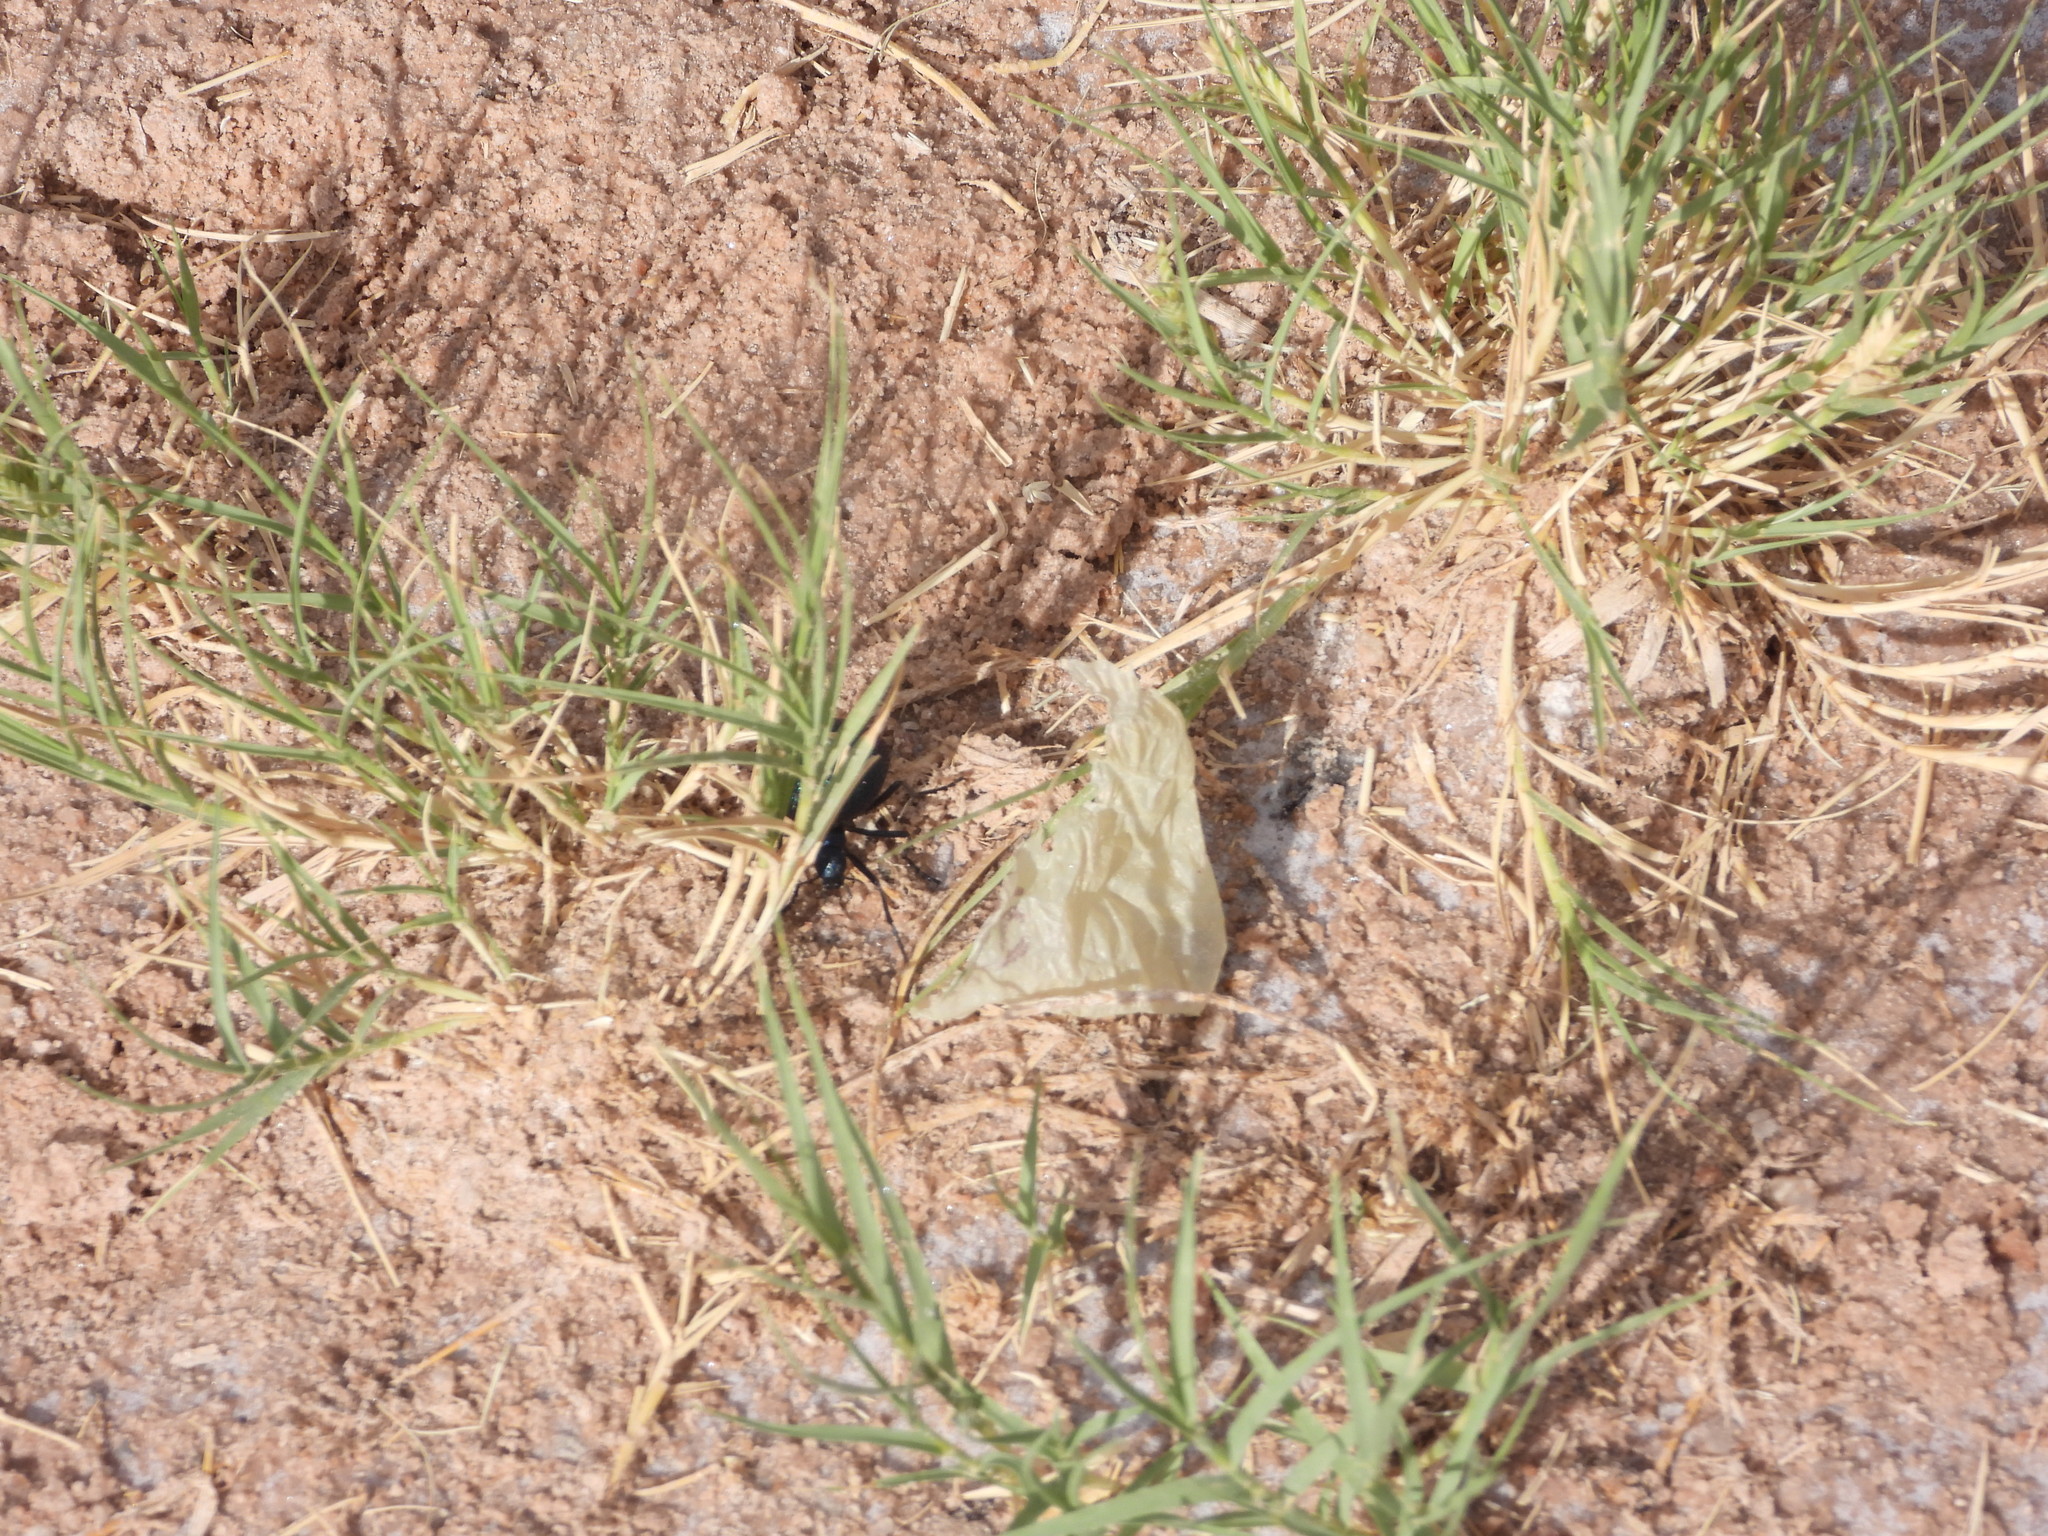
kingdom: Animalia
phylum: Arthropoda
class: Insecta
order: Coleoptera
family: Meloidae
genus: Cysteodemus
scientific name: Cysteodemus wislizeni
